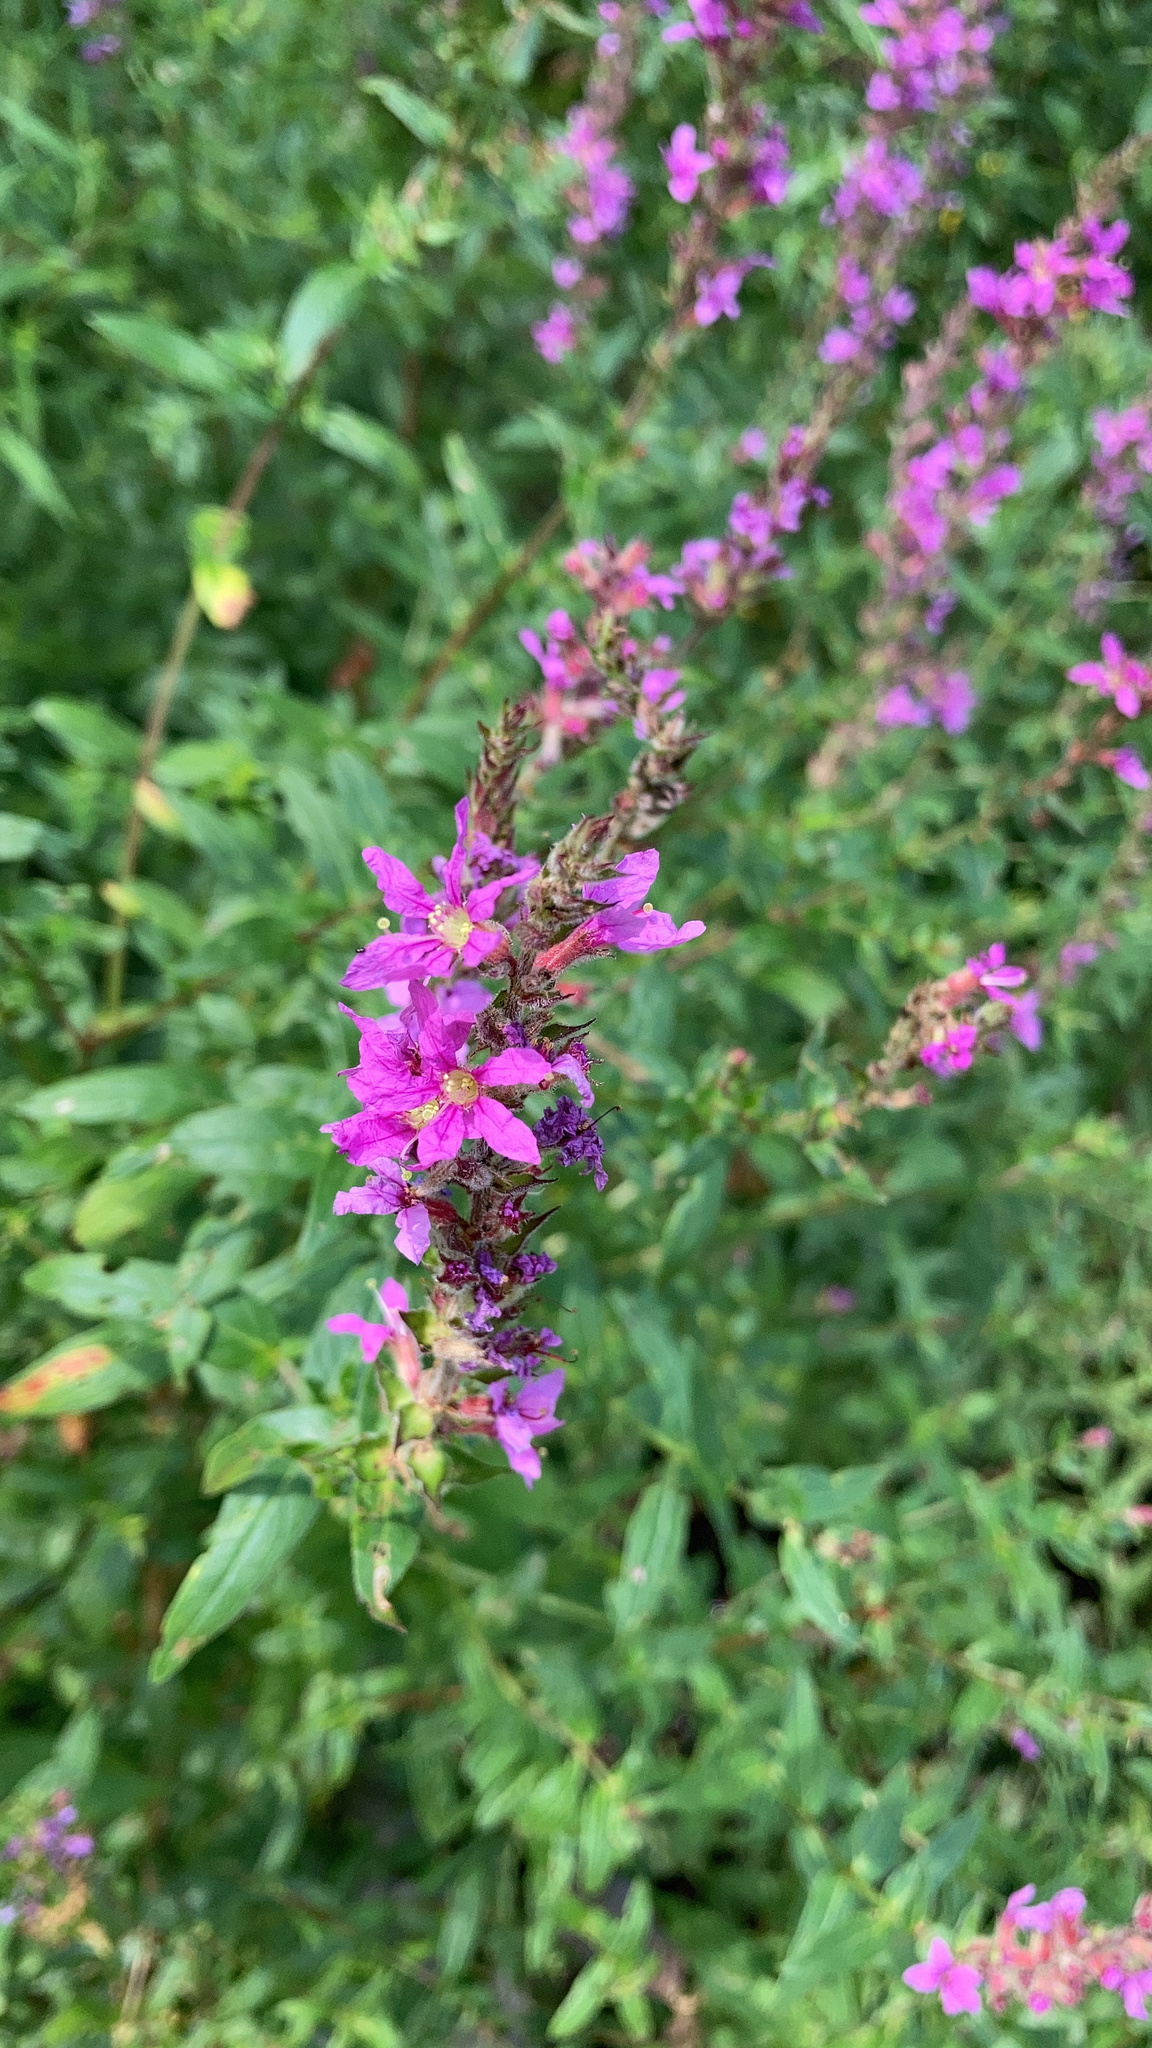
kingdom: Plantae
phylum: Tracheophyta
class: Magnoliopsida
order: Myrtales
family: Lythraceae
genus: Lythrum
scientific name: Lythrum salicaria
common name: Purple loosestrife
